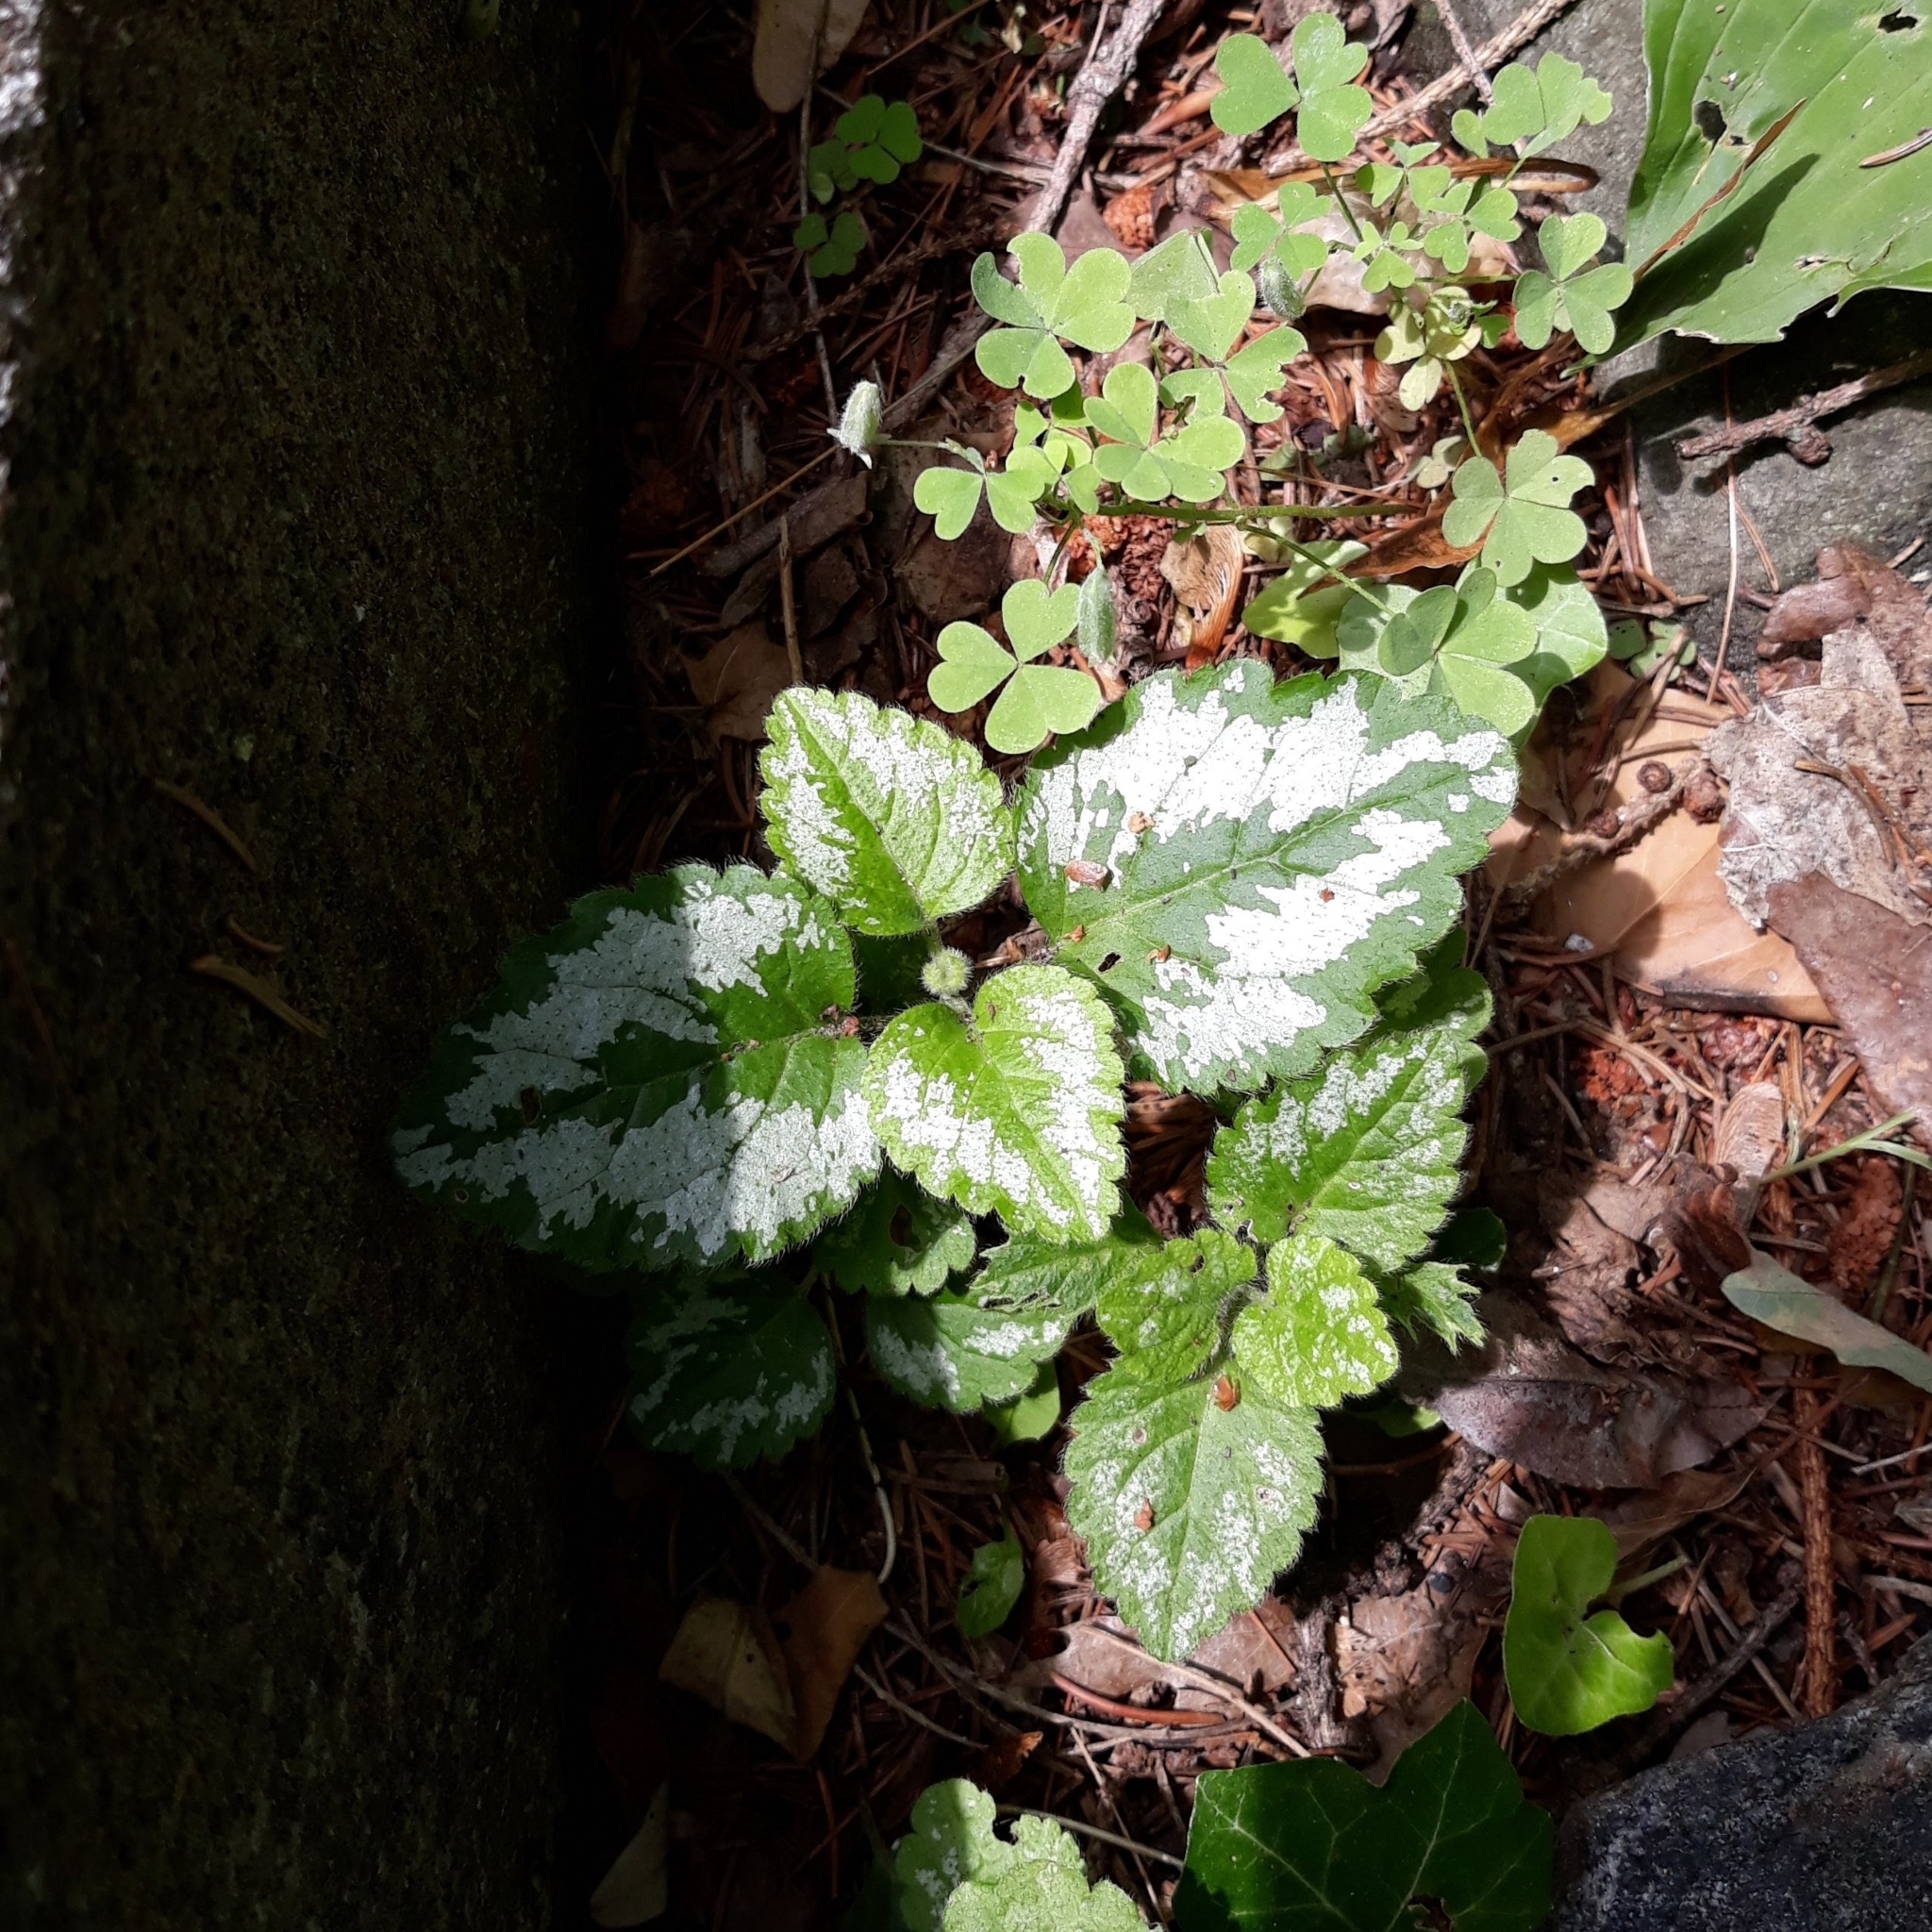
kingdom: Plantae
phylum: Tracheophyta
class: Magnoliopsida
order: Lamiales
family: Lamiaceae
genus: Lamium
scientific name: Lamium galeobdolon
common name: Yellow archangel
